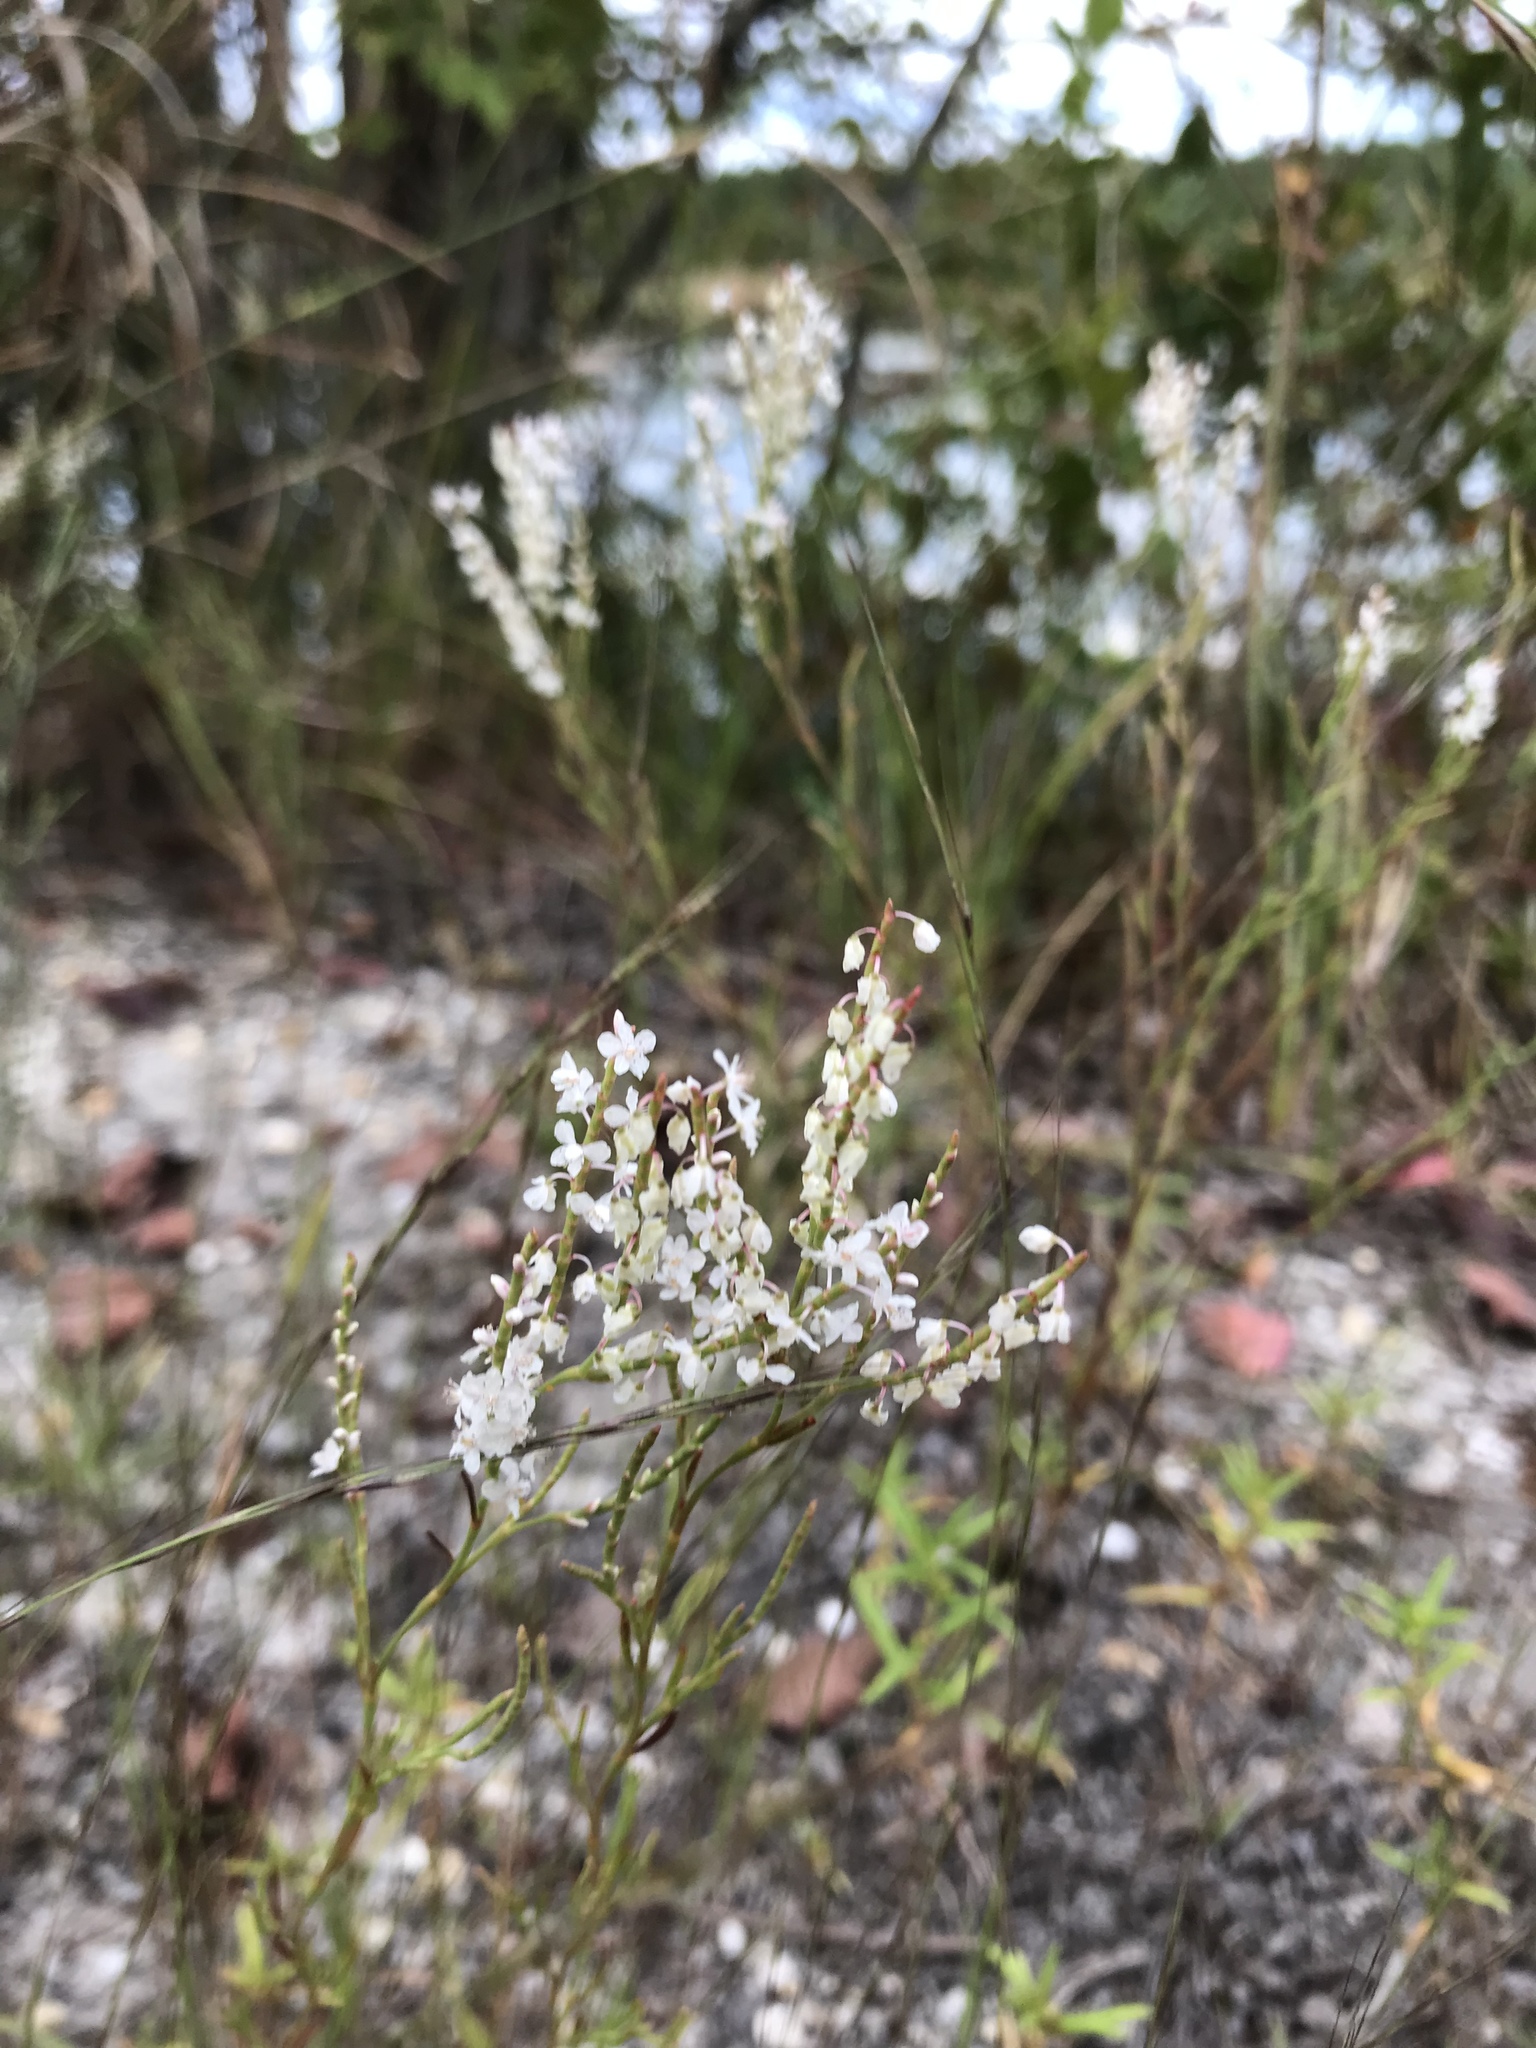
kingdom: Plantae
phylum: Tracheophyta
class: Magnoliopsida
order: Caryophyllales
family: Polygonaceae
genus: Polygonella
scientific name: Polygonella articulata
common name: Coastal jointweed
